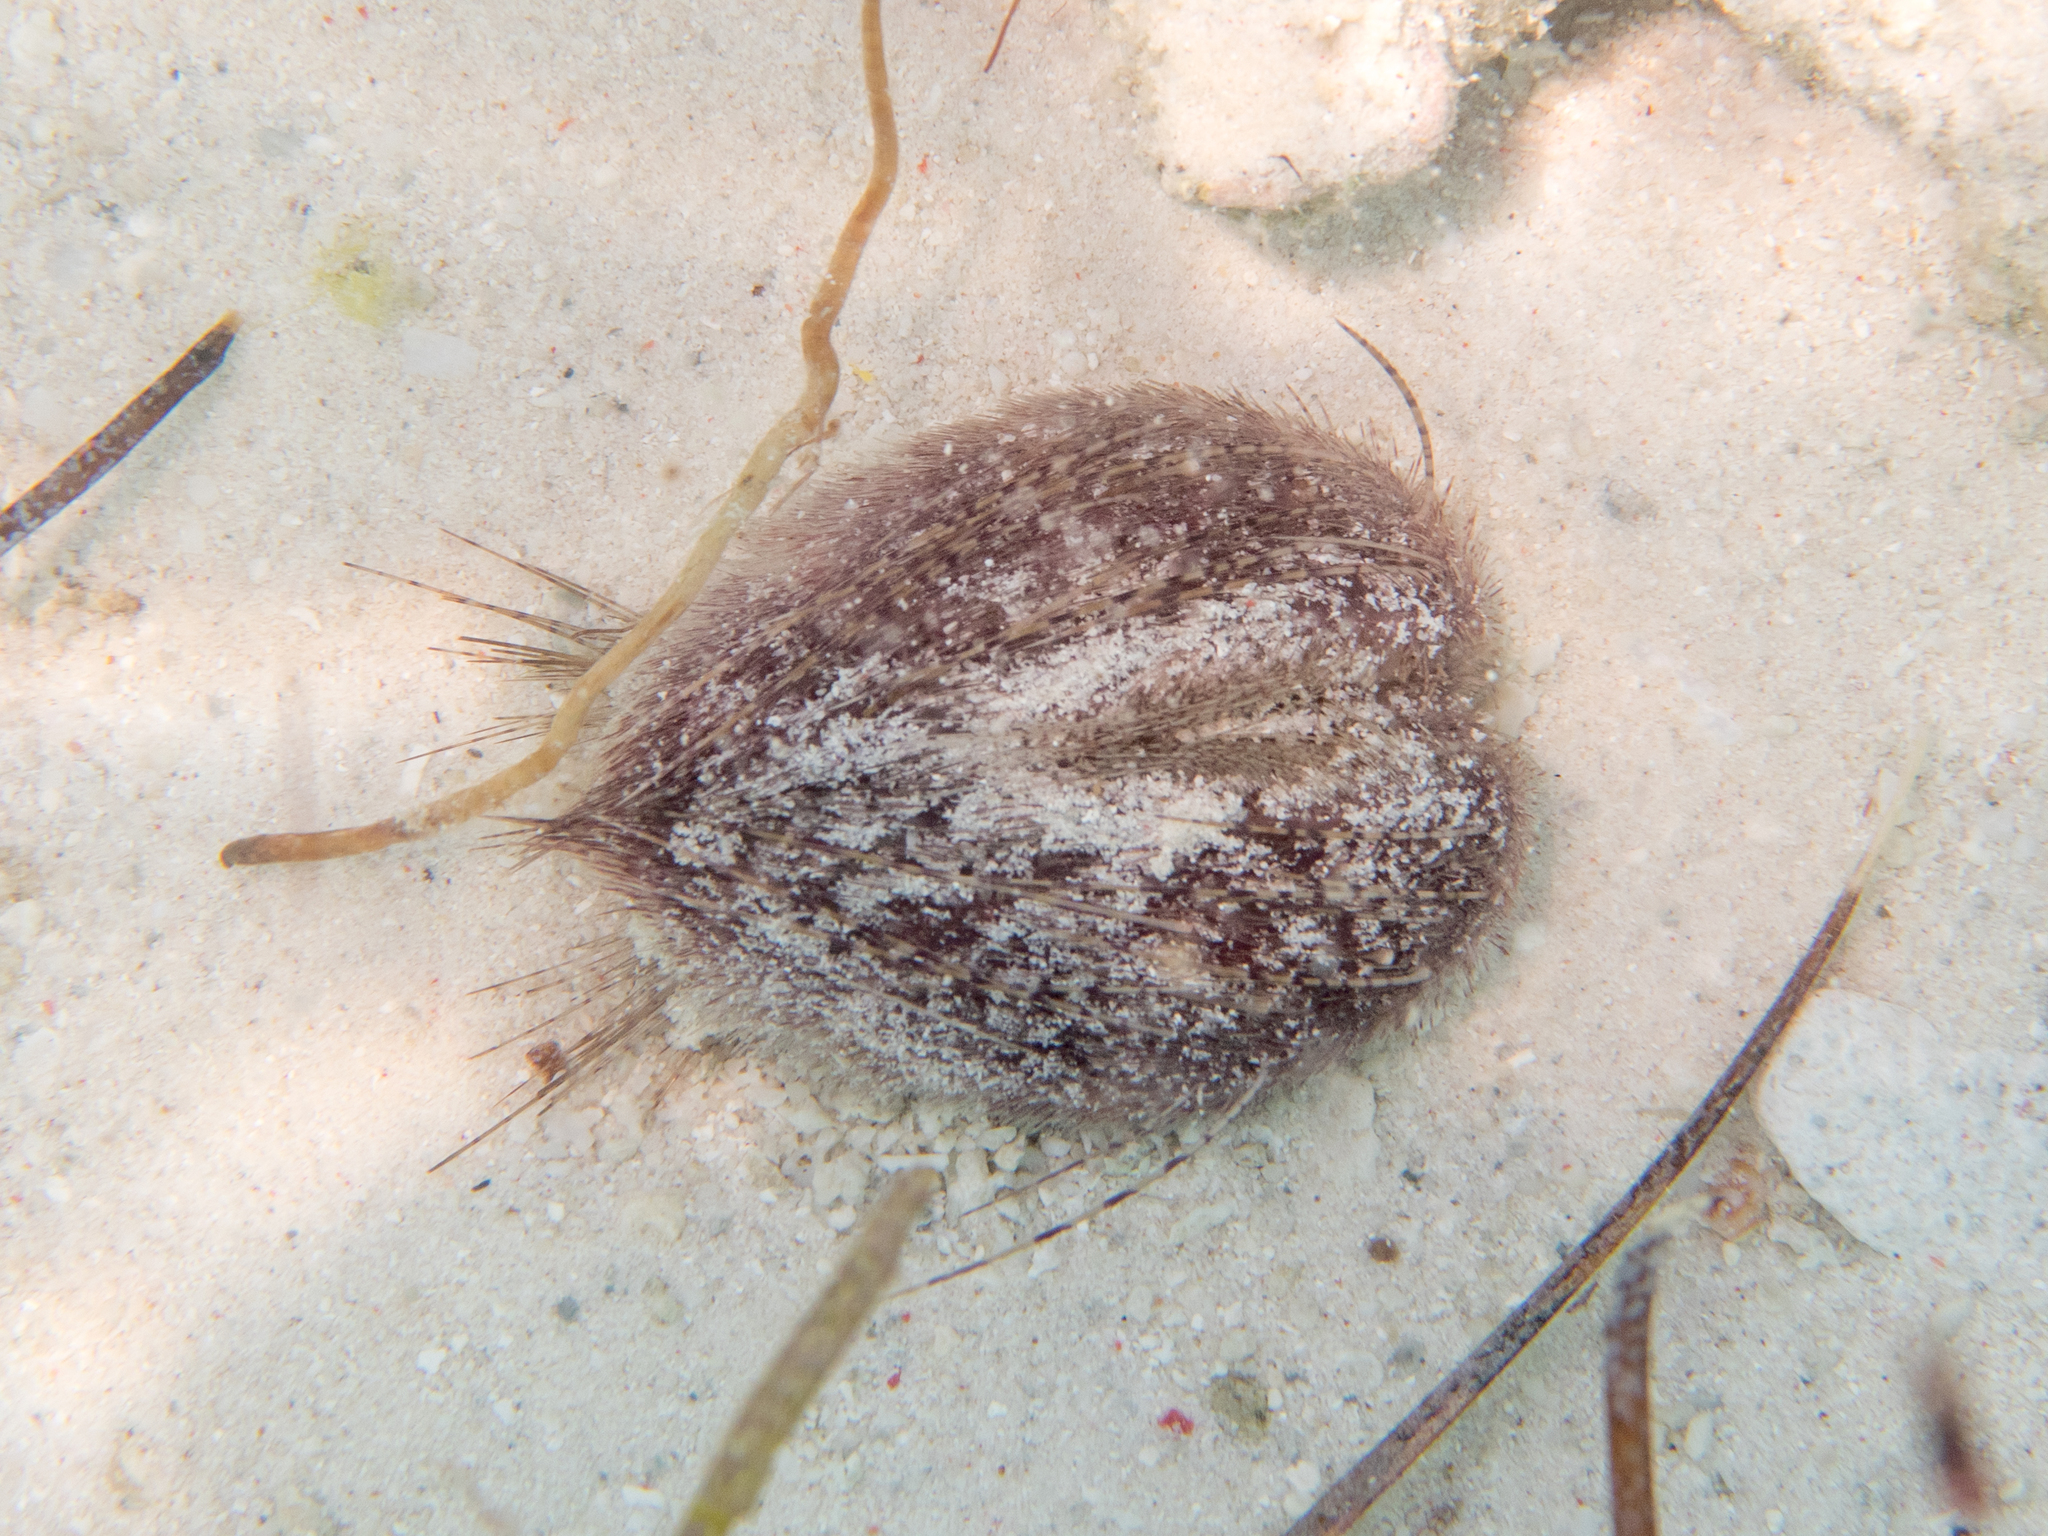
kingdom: Animalia
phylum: Echinodermata
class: Echinoidea
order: Spatangoida
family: Loveniidae
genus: Lovenia
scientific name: Lovenia elongata
